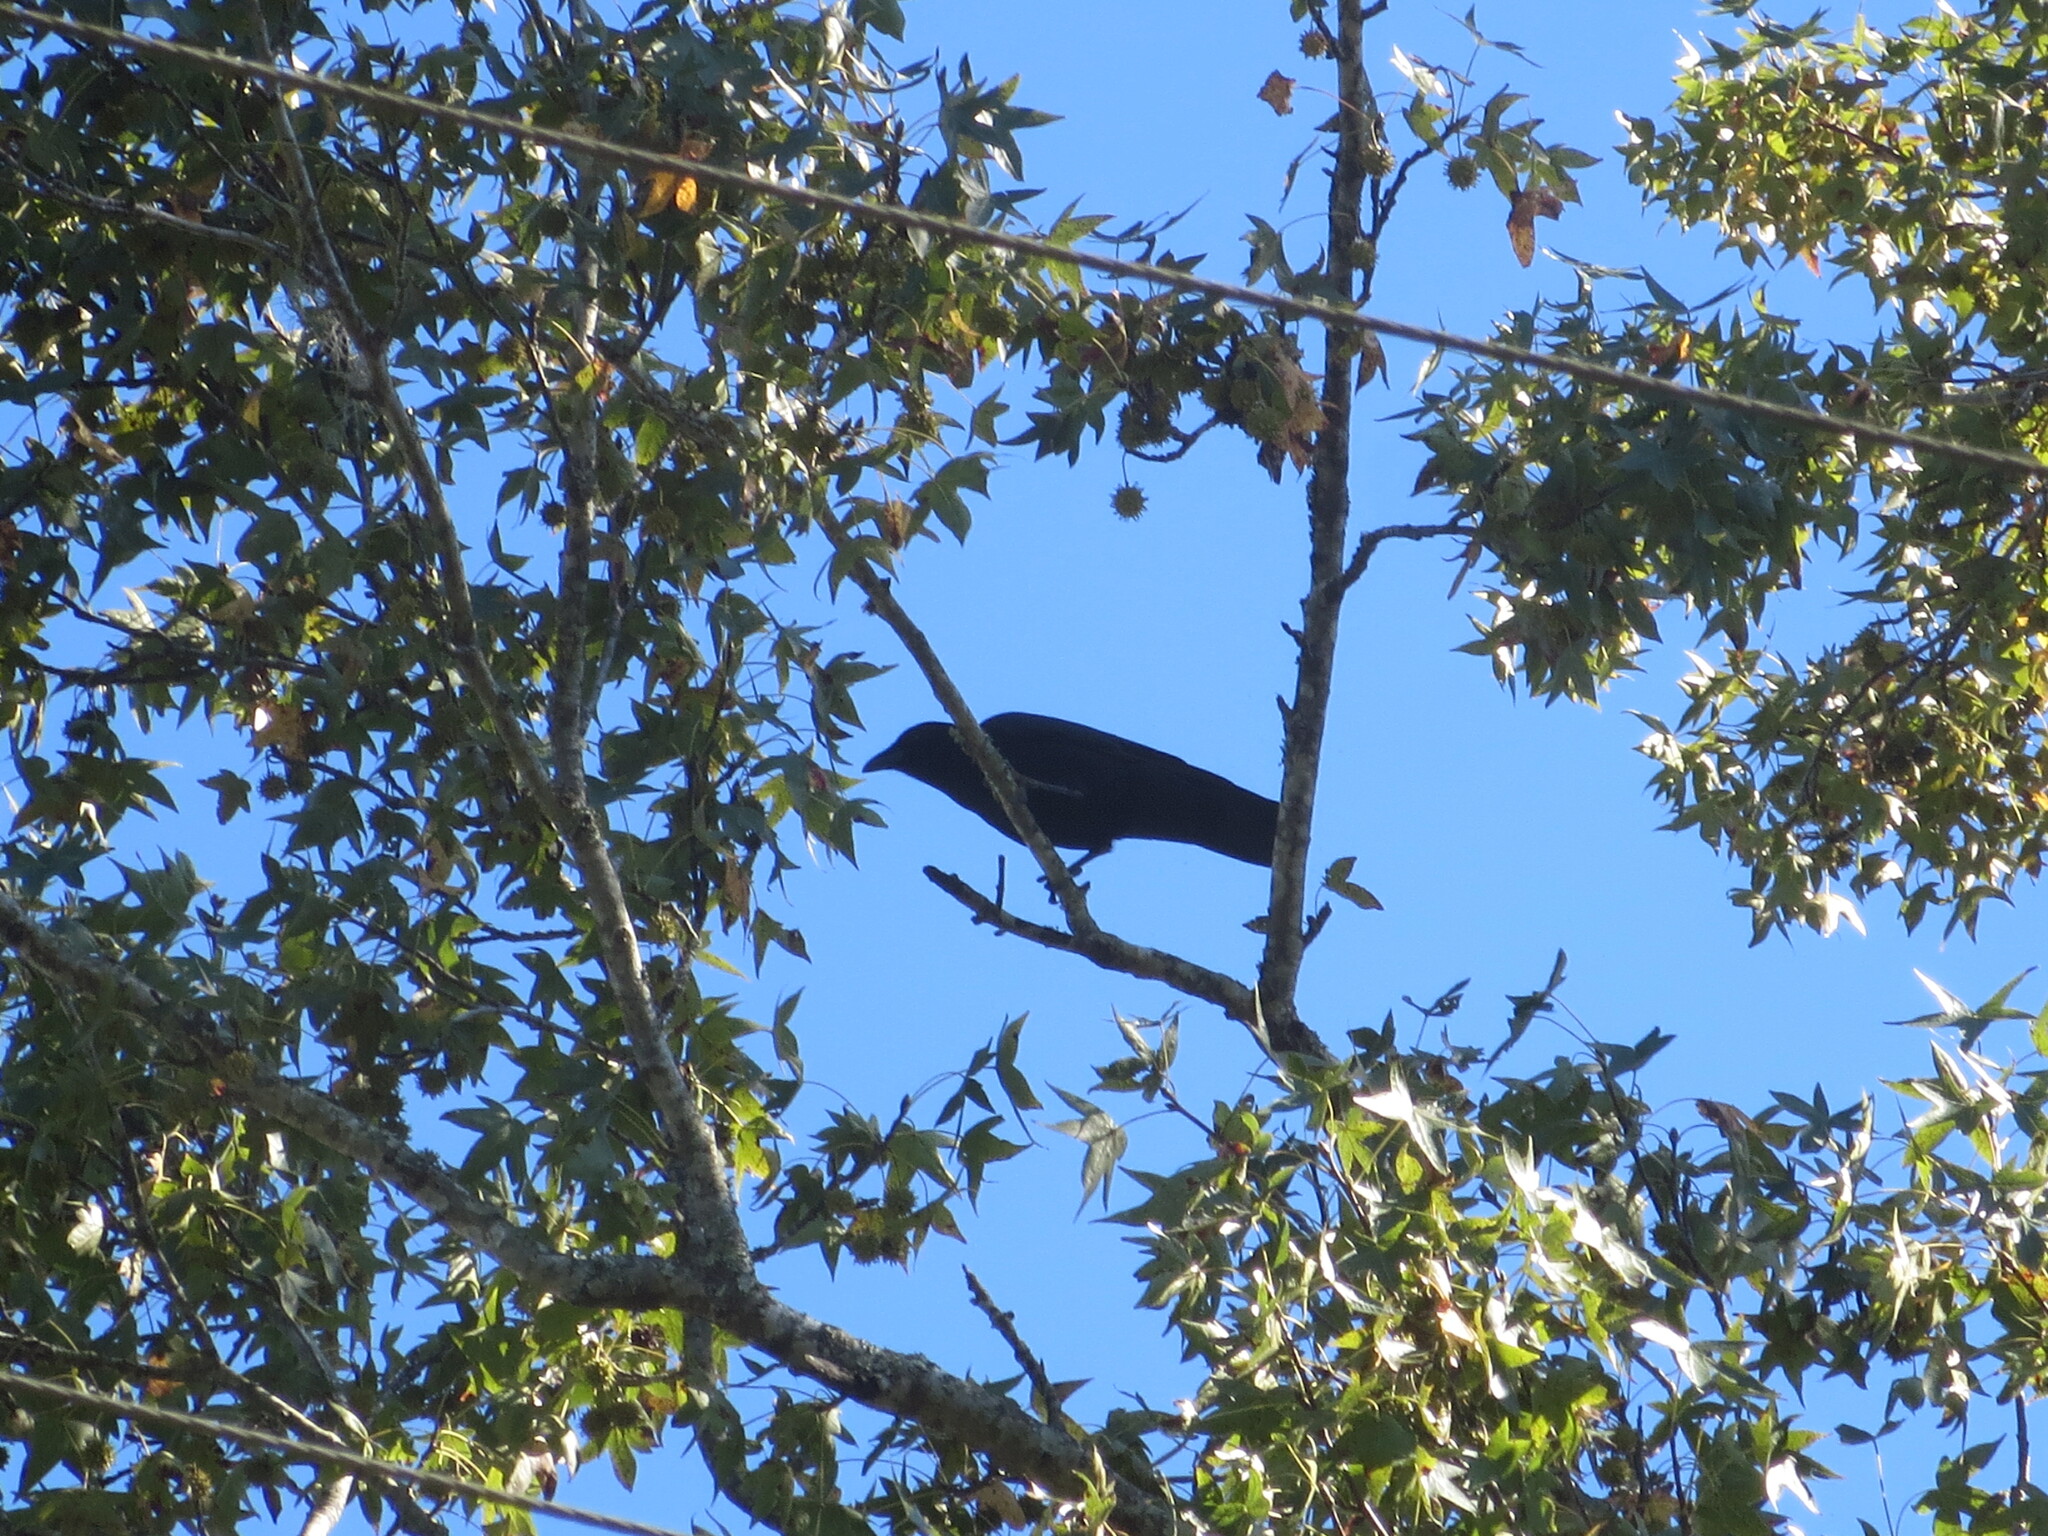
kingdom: Plantae
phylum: Tracheophyta
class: Magnoliopsida
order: Saxifragales
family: Altingiaceae
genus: Liquidambar
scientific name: Liquidambar styraciflua
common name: Sweet gum
